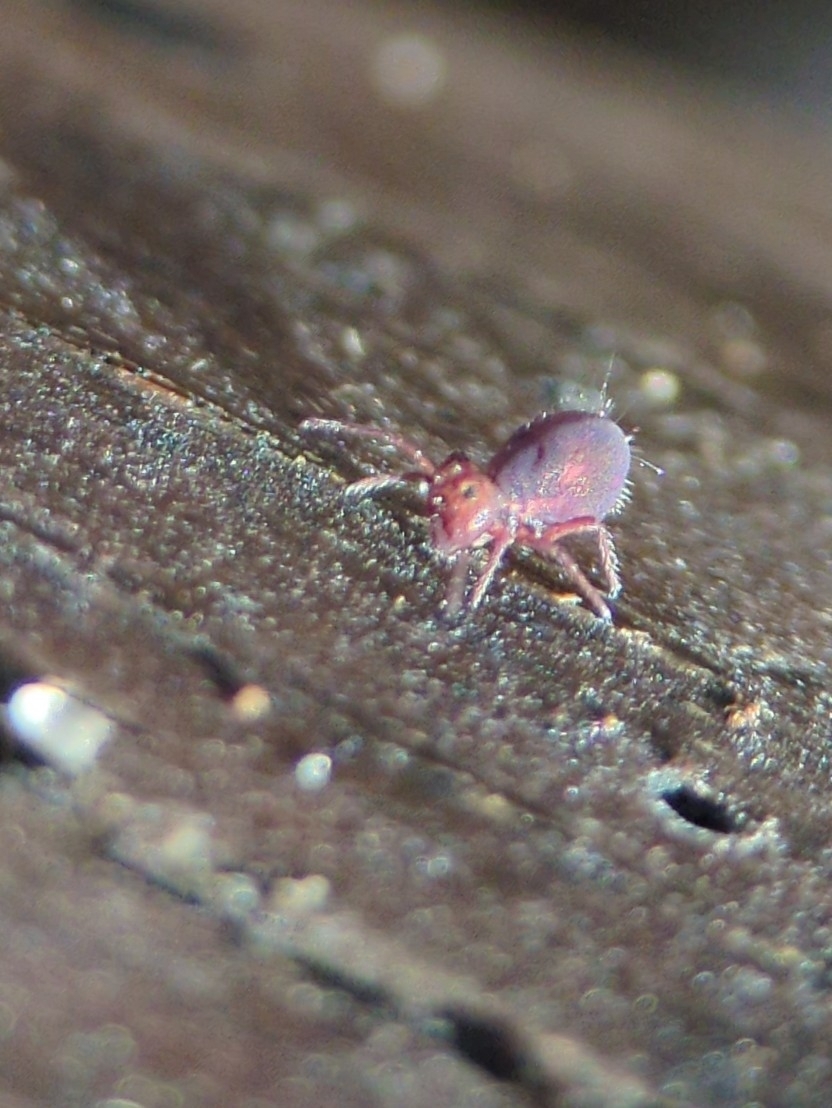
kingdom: Animalia
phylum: Arthropoda
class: Collembola
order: Symphypleona
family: Dicyrtomidae
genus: Dicyrtoma
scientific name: Dicyrtoma fusca
